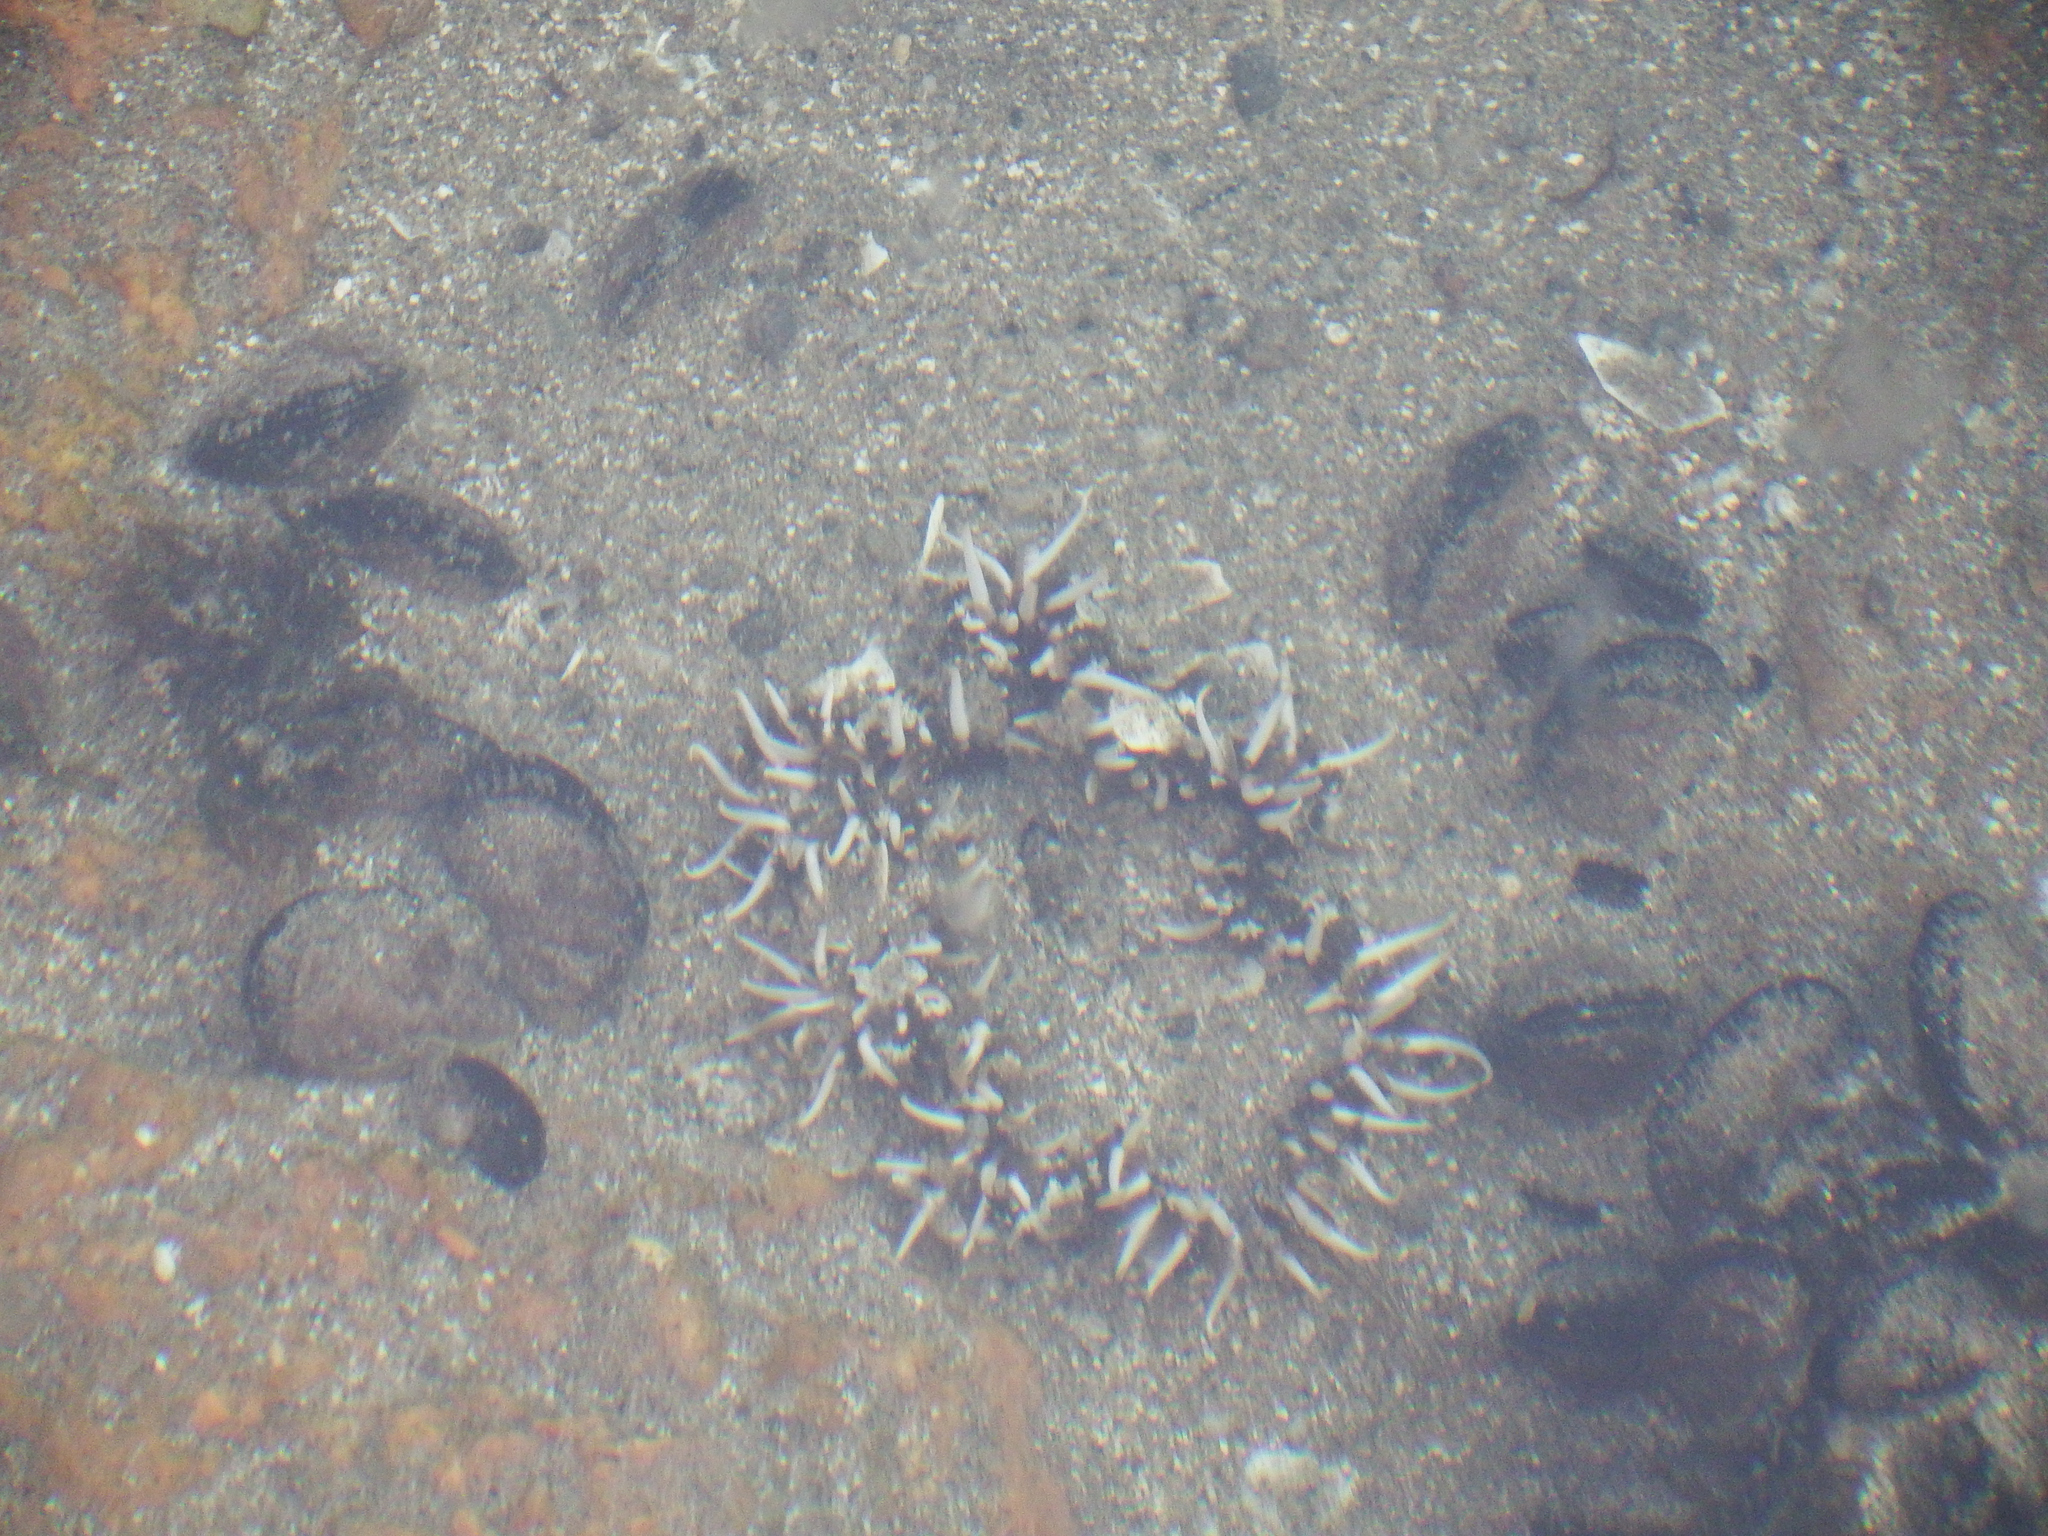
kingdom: Animalia
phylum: Cnidaria
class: Anthozoa
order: Actiniaria
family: Actiniidae
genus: Oulactis
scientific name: Oulactis concinnata
